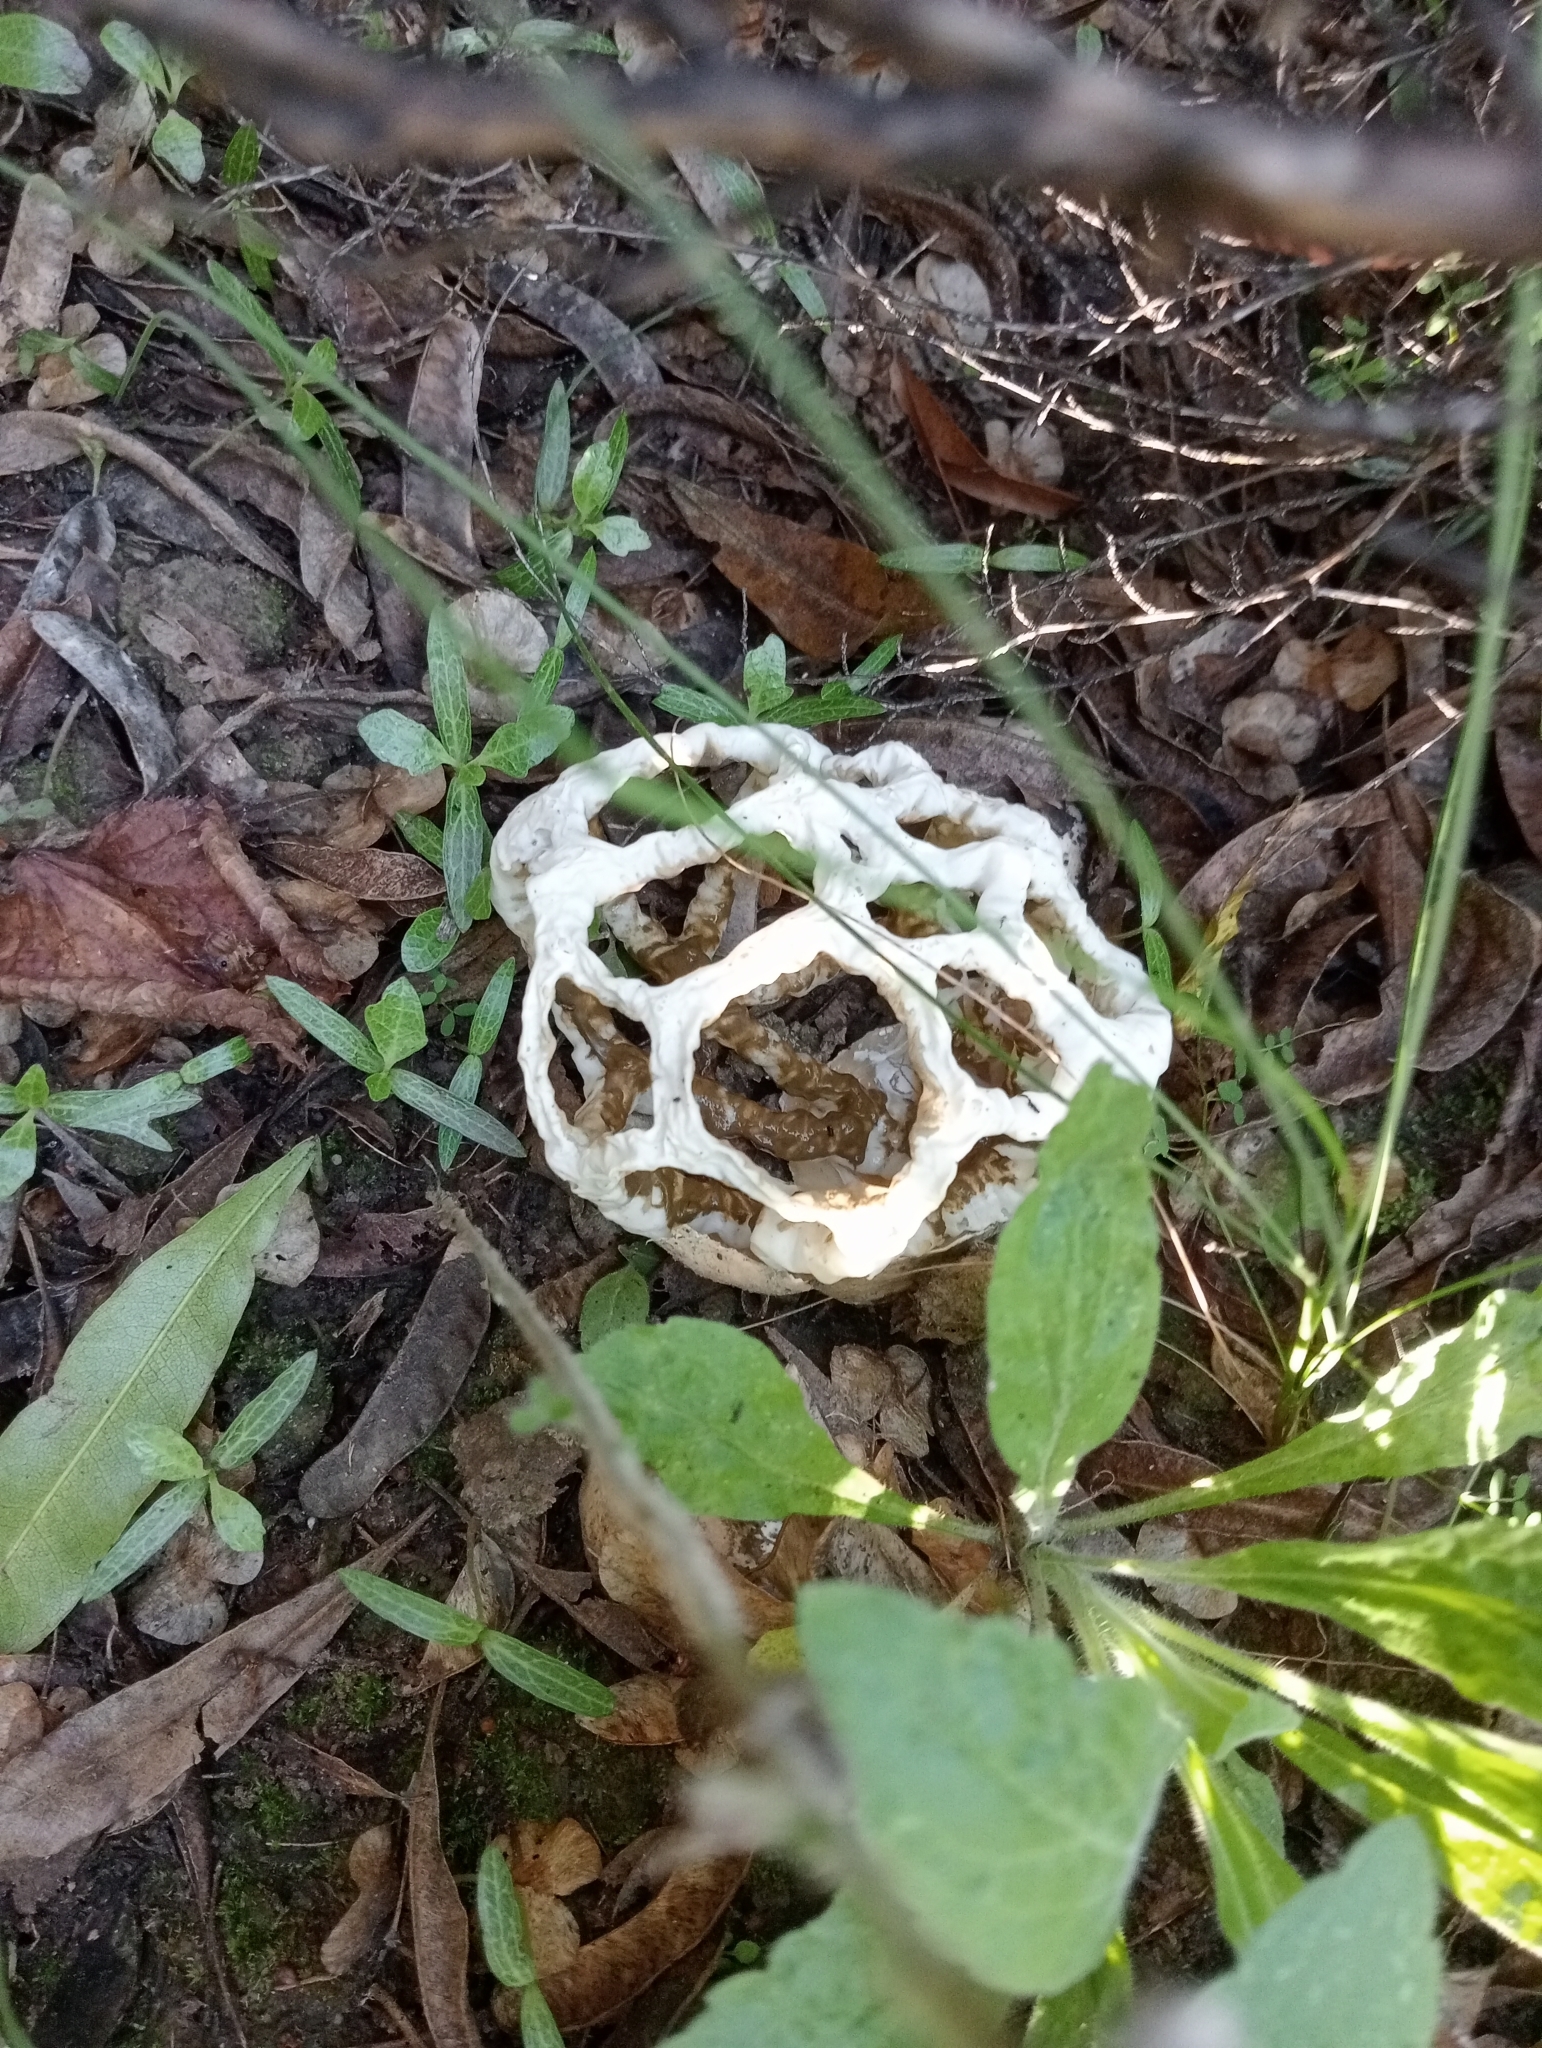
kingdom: Fungi
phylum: Basidiomycota
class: Agaricomycetes
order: Phallales
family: Phallaceae
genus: Ileodictyon
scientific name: Ileodictyon cibarium
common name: Basket fungus
